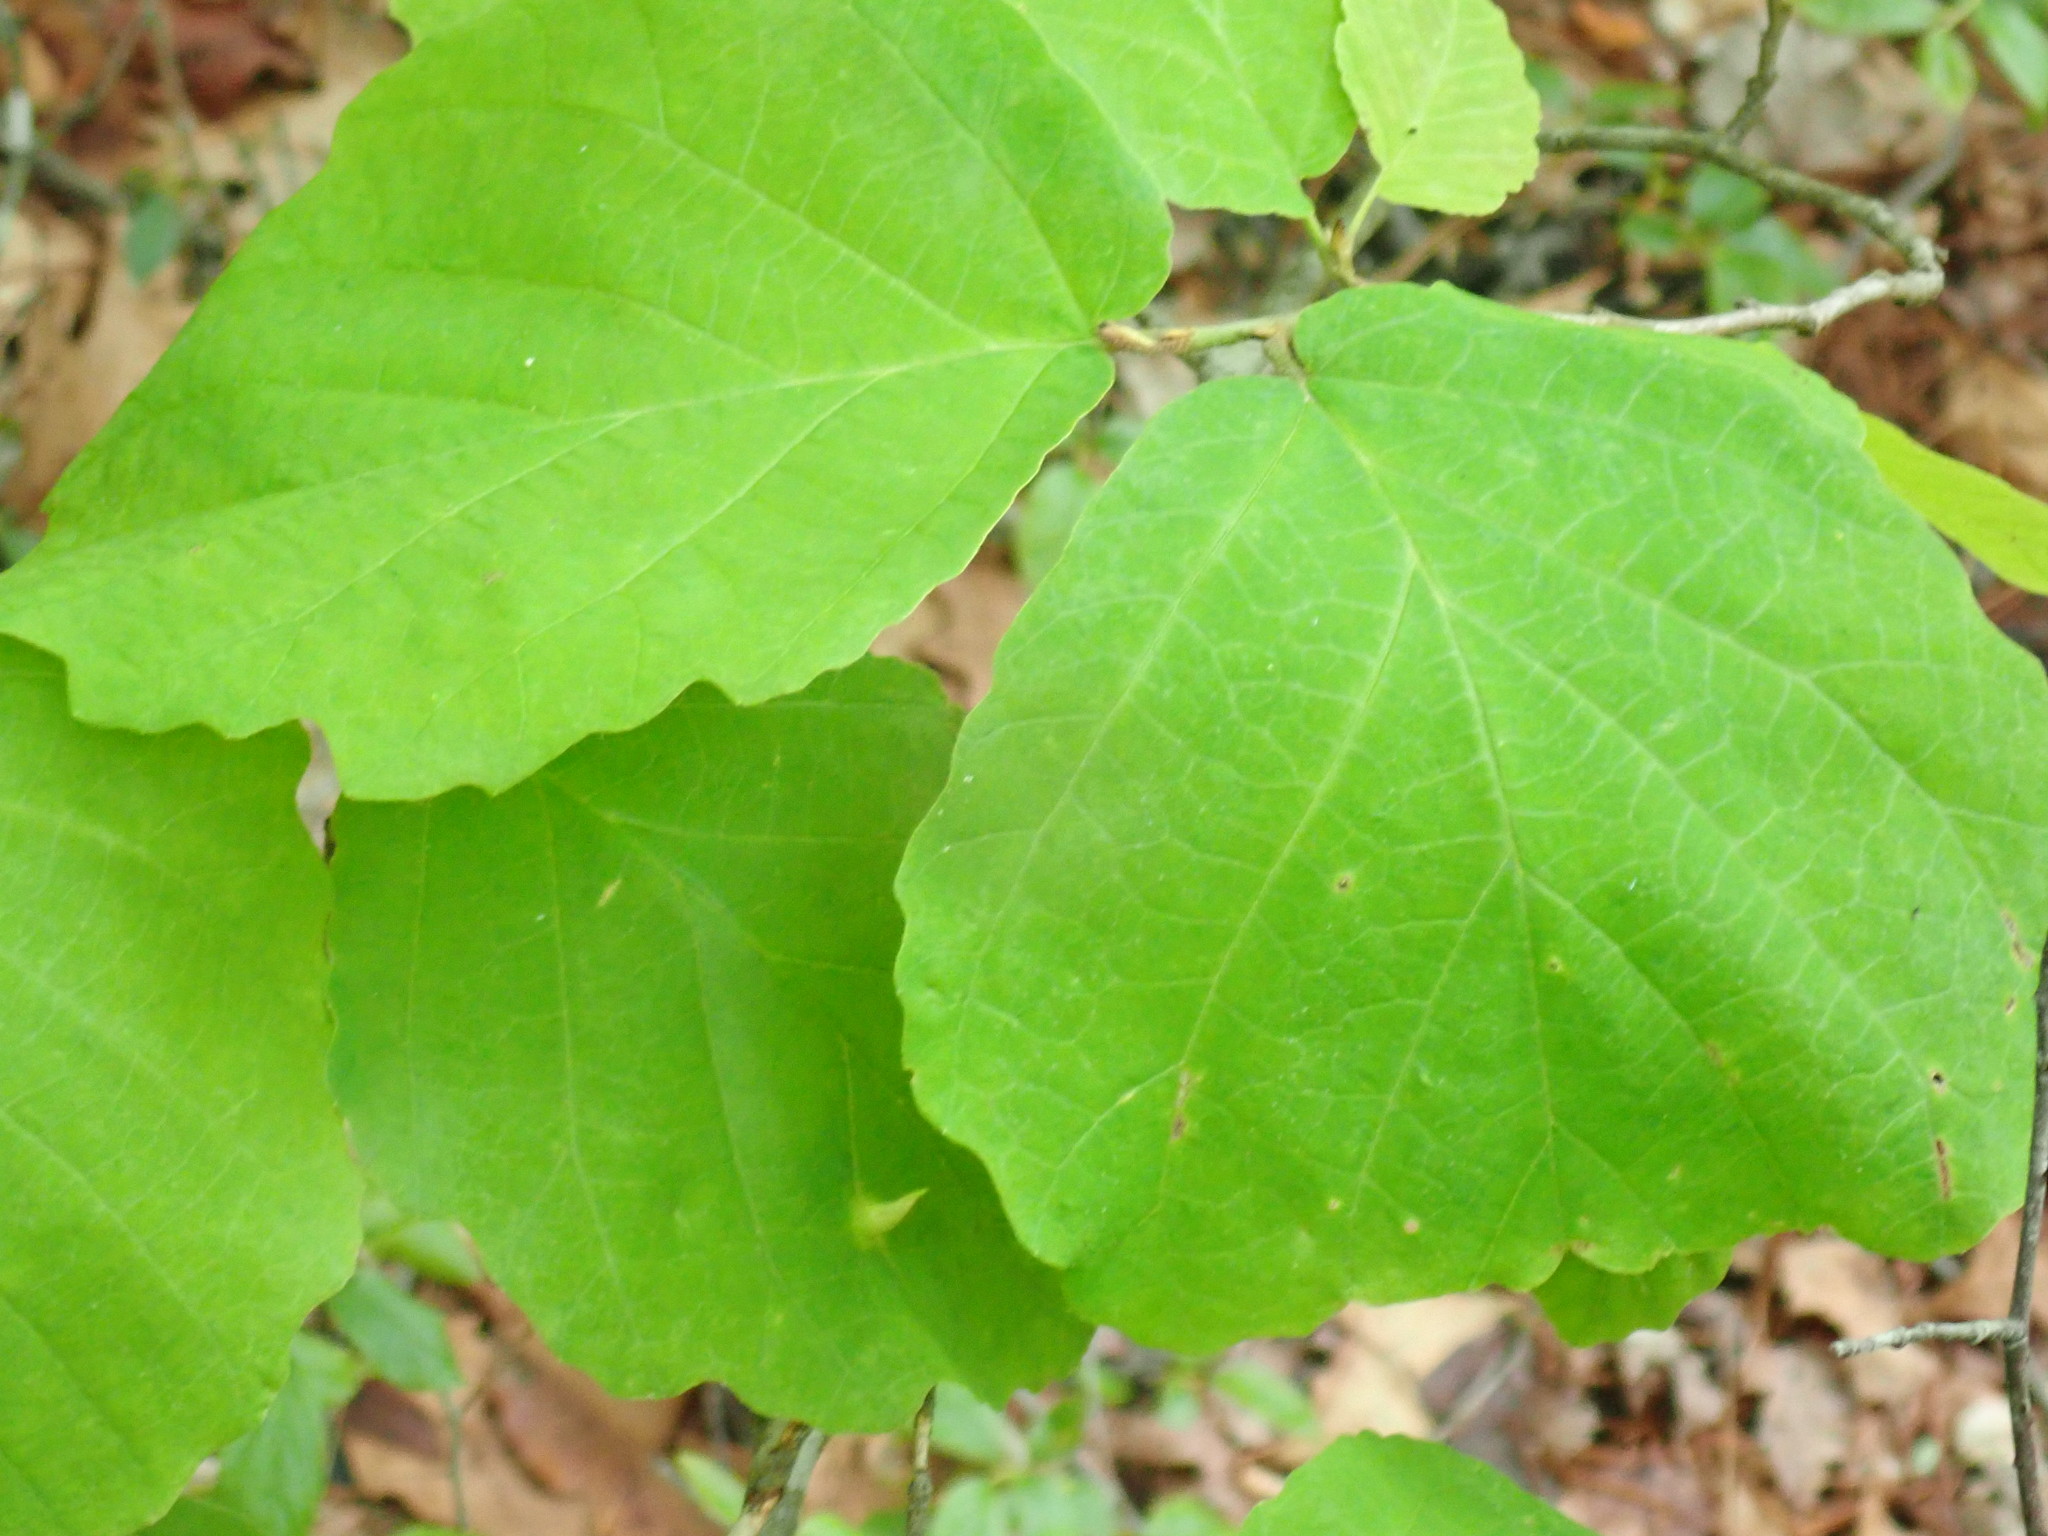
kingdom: Animalia
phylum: Arthropoda
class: Insecta
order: Hemiptera
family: Aphididae
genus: Hormaphis
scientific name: Hormaphis hamamelidis
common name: Witch-hazel cone gall aphid
